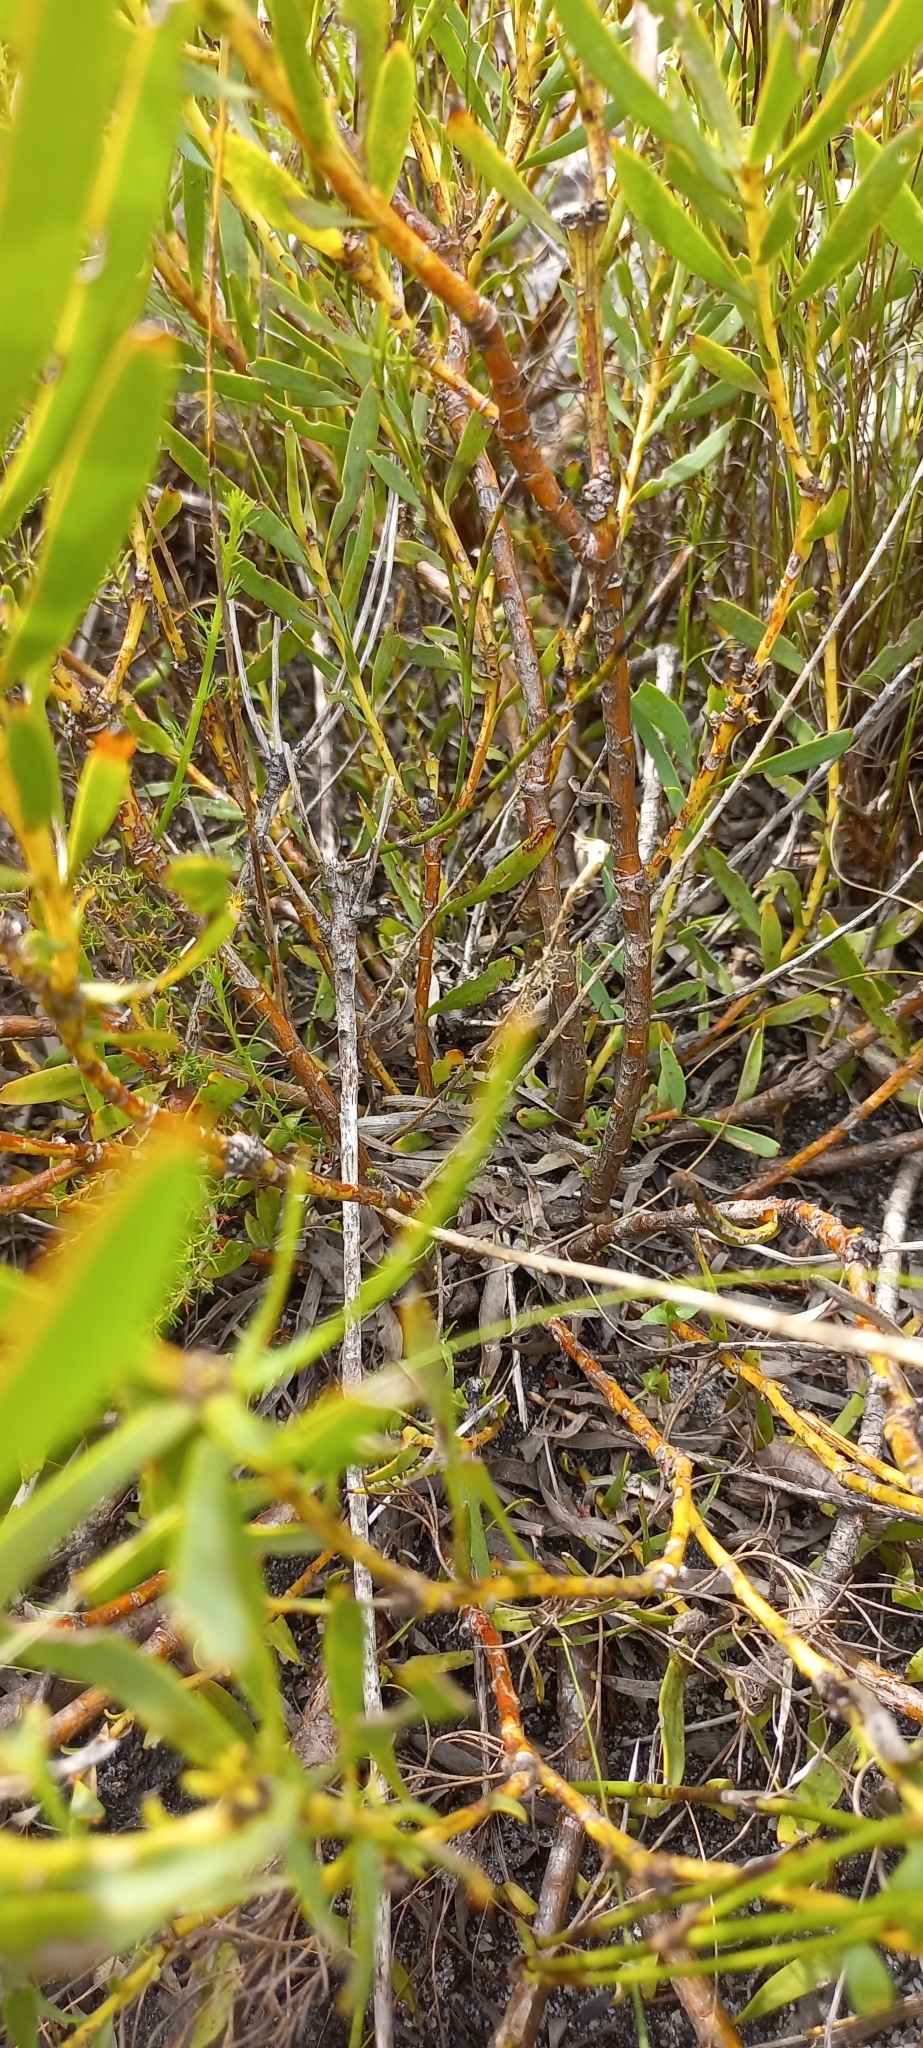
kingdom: Plantae
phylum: Tracheophyta
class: Magnoliopsida
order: Proteales
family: Proteaceae
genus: Leucadendron
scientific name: Leucadendron salignum
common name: Common sunshine conebush
